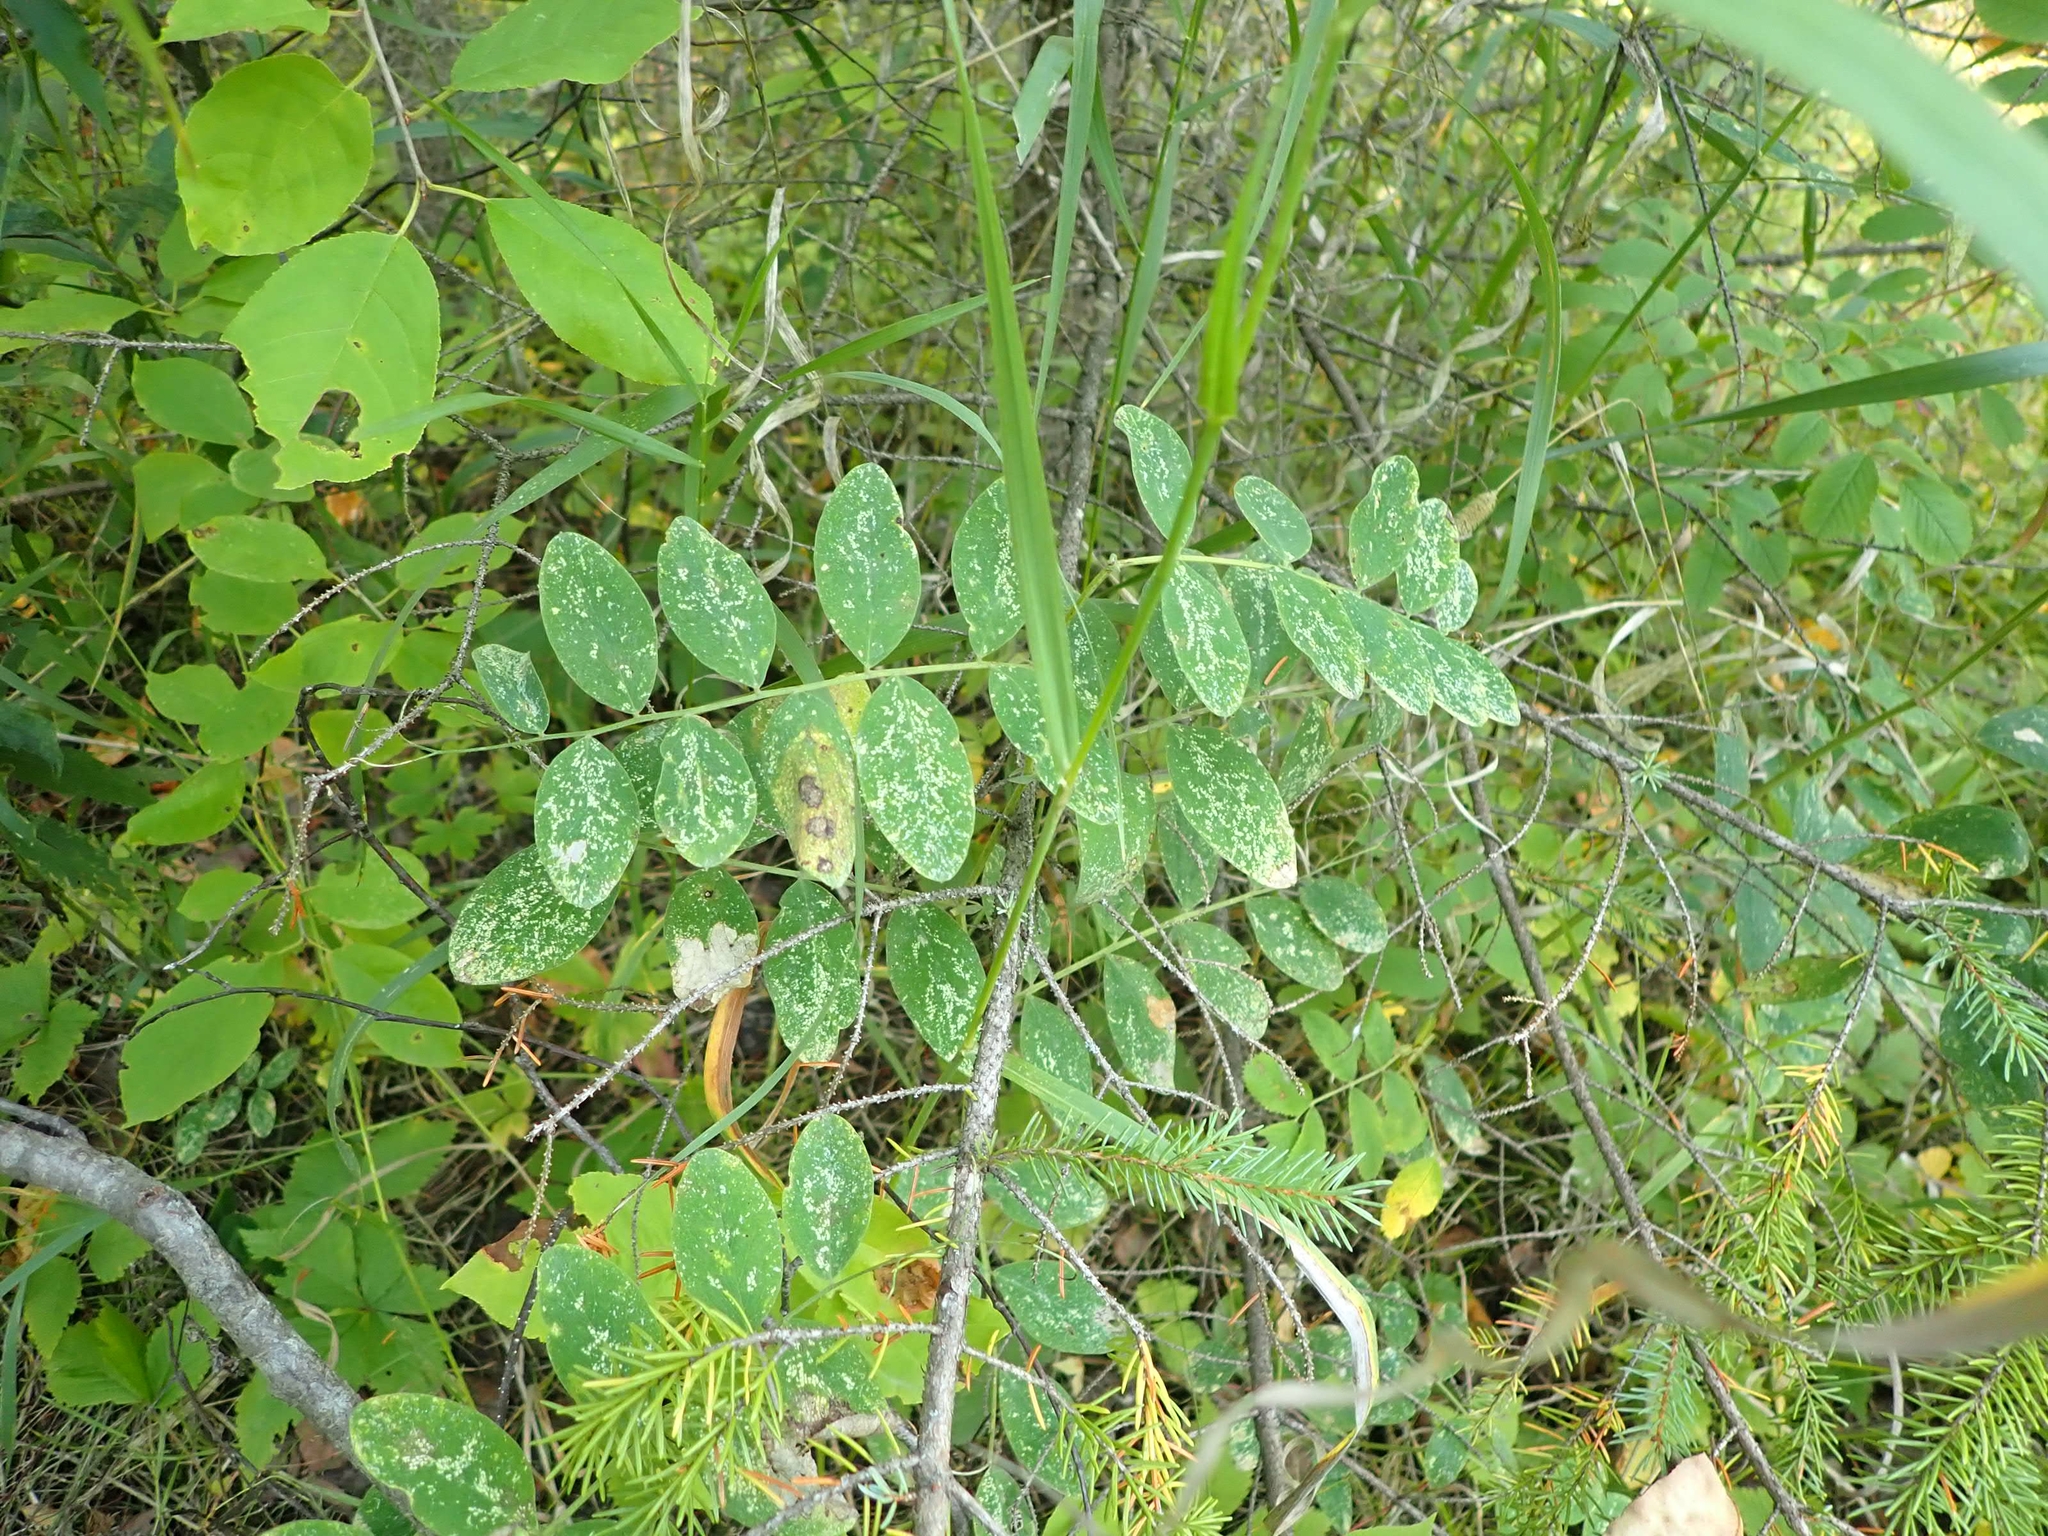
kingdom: Plantae
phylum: Tracheophyta
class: Magnoliopsida
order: Fabales
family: Fabaceae
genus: Lathyrus
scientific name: Lathyrus venosus
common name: Forest-pea
